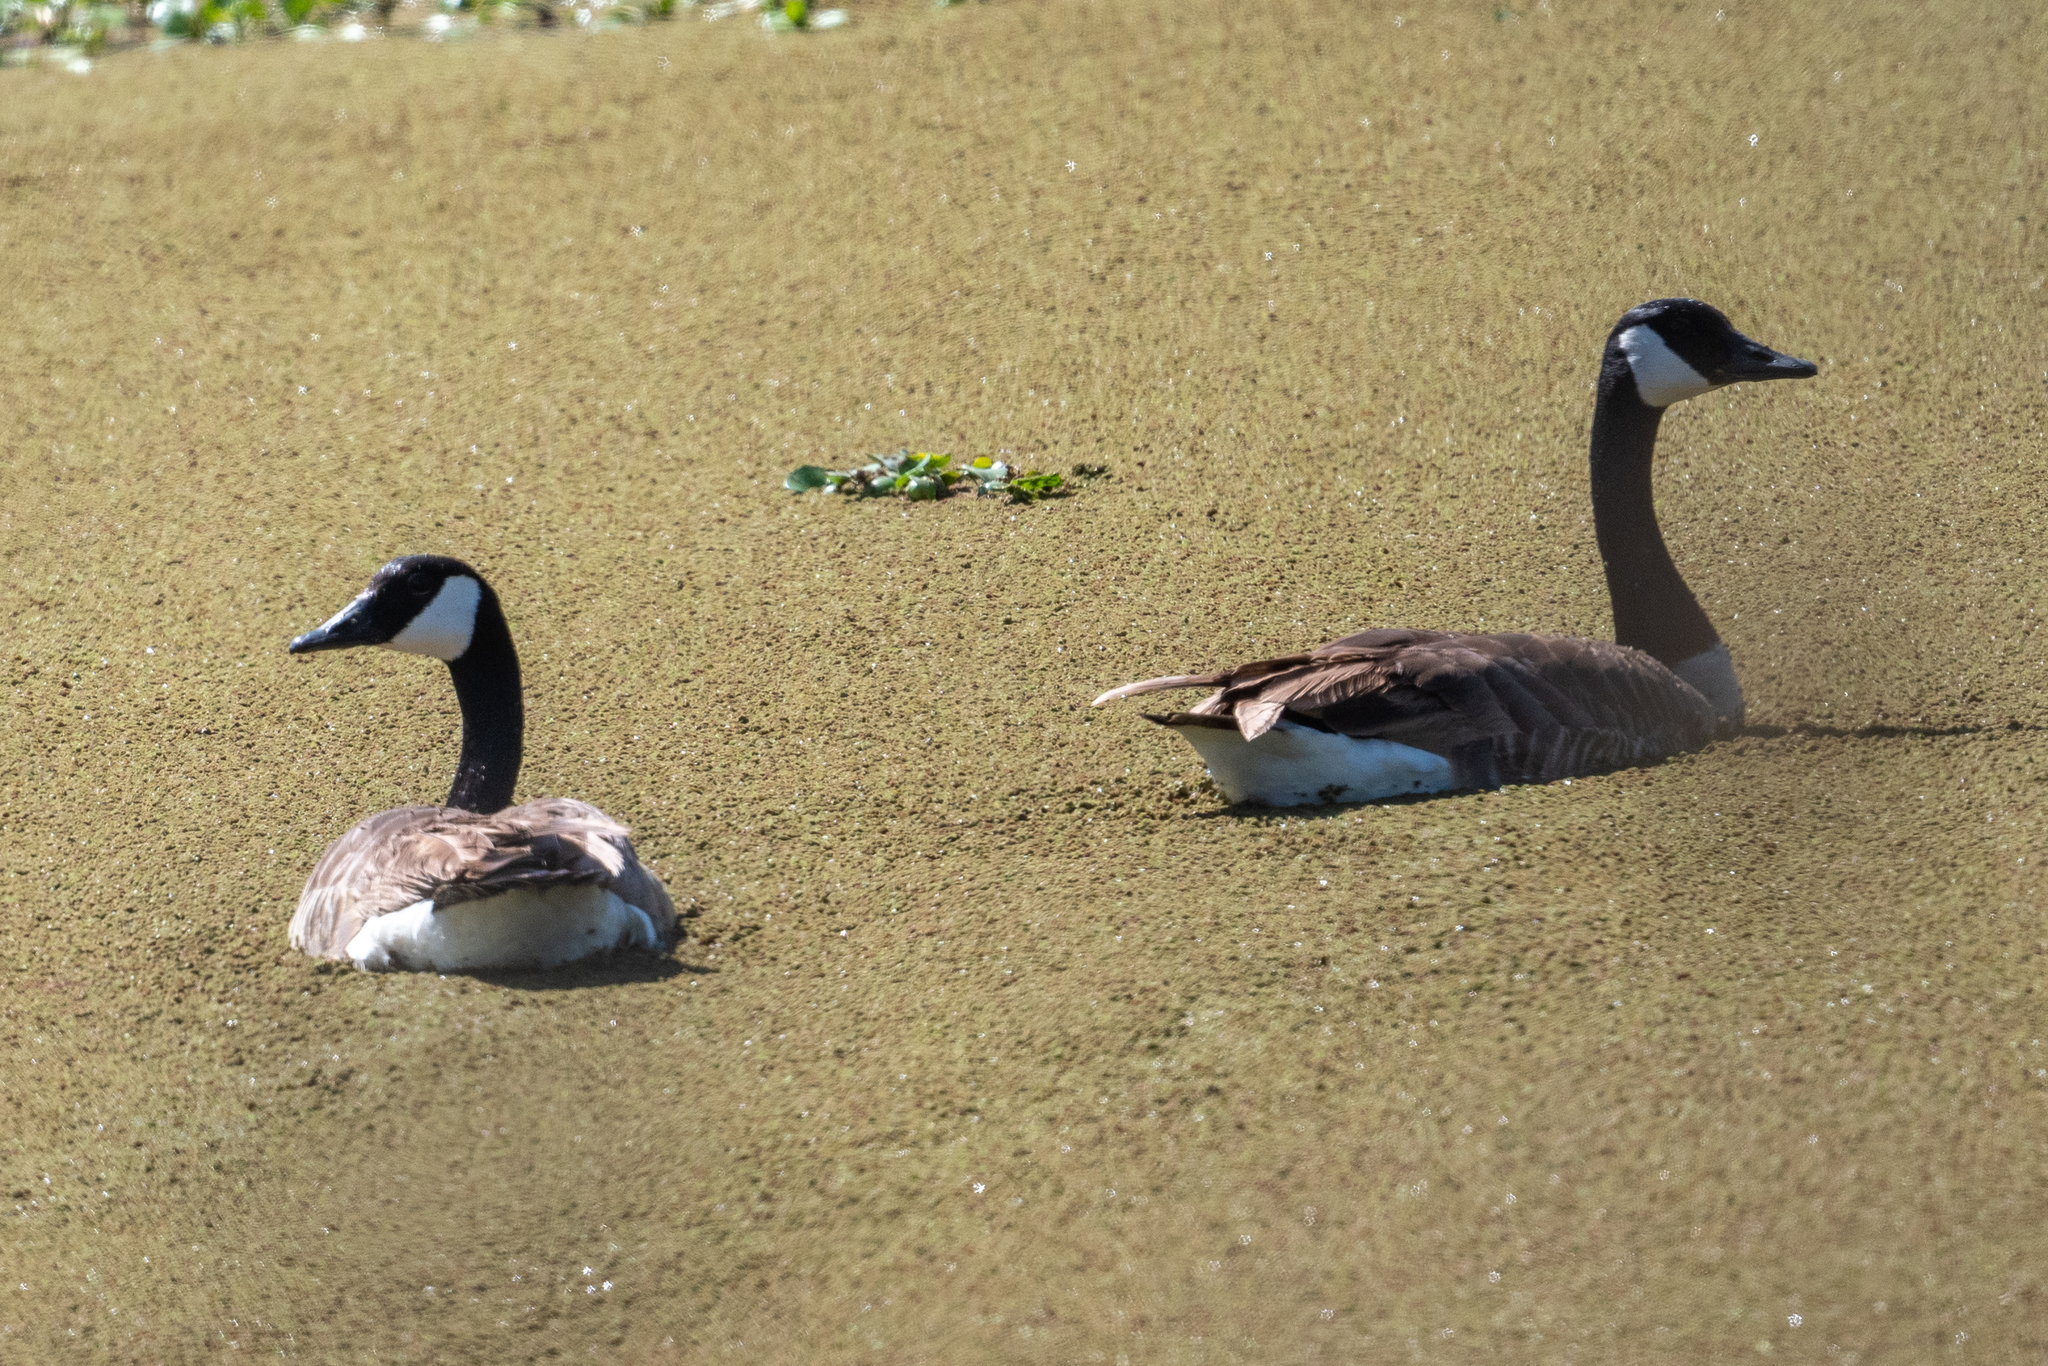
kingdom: Animalia
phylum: Chordata
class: Aves
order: Anseriformes
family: Anatidae
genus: Branta
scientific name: Branta canadensis
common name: Canada goose
